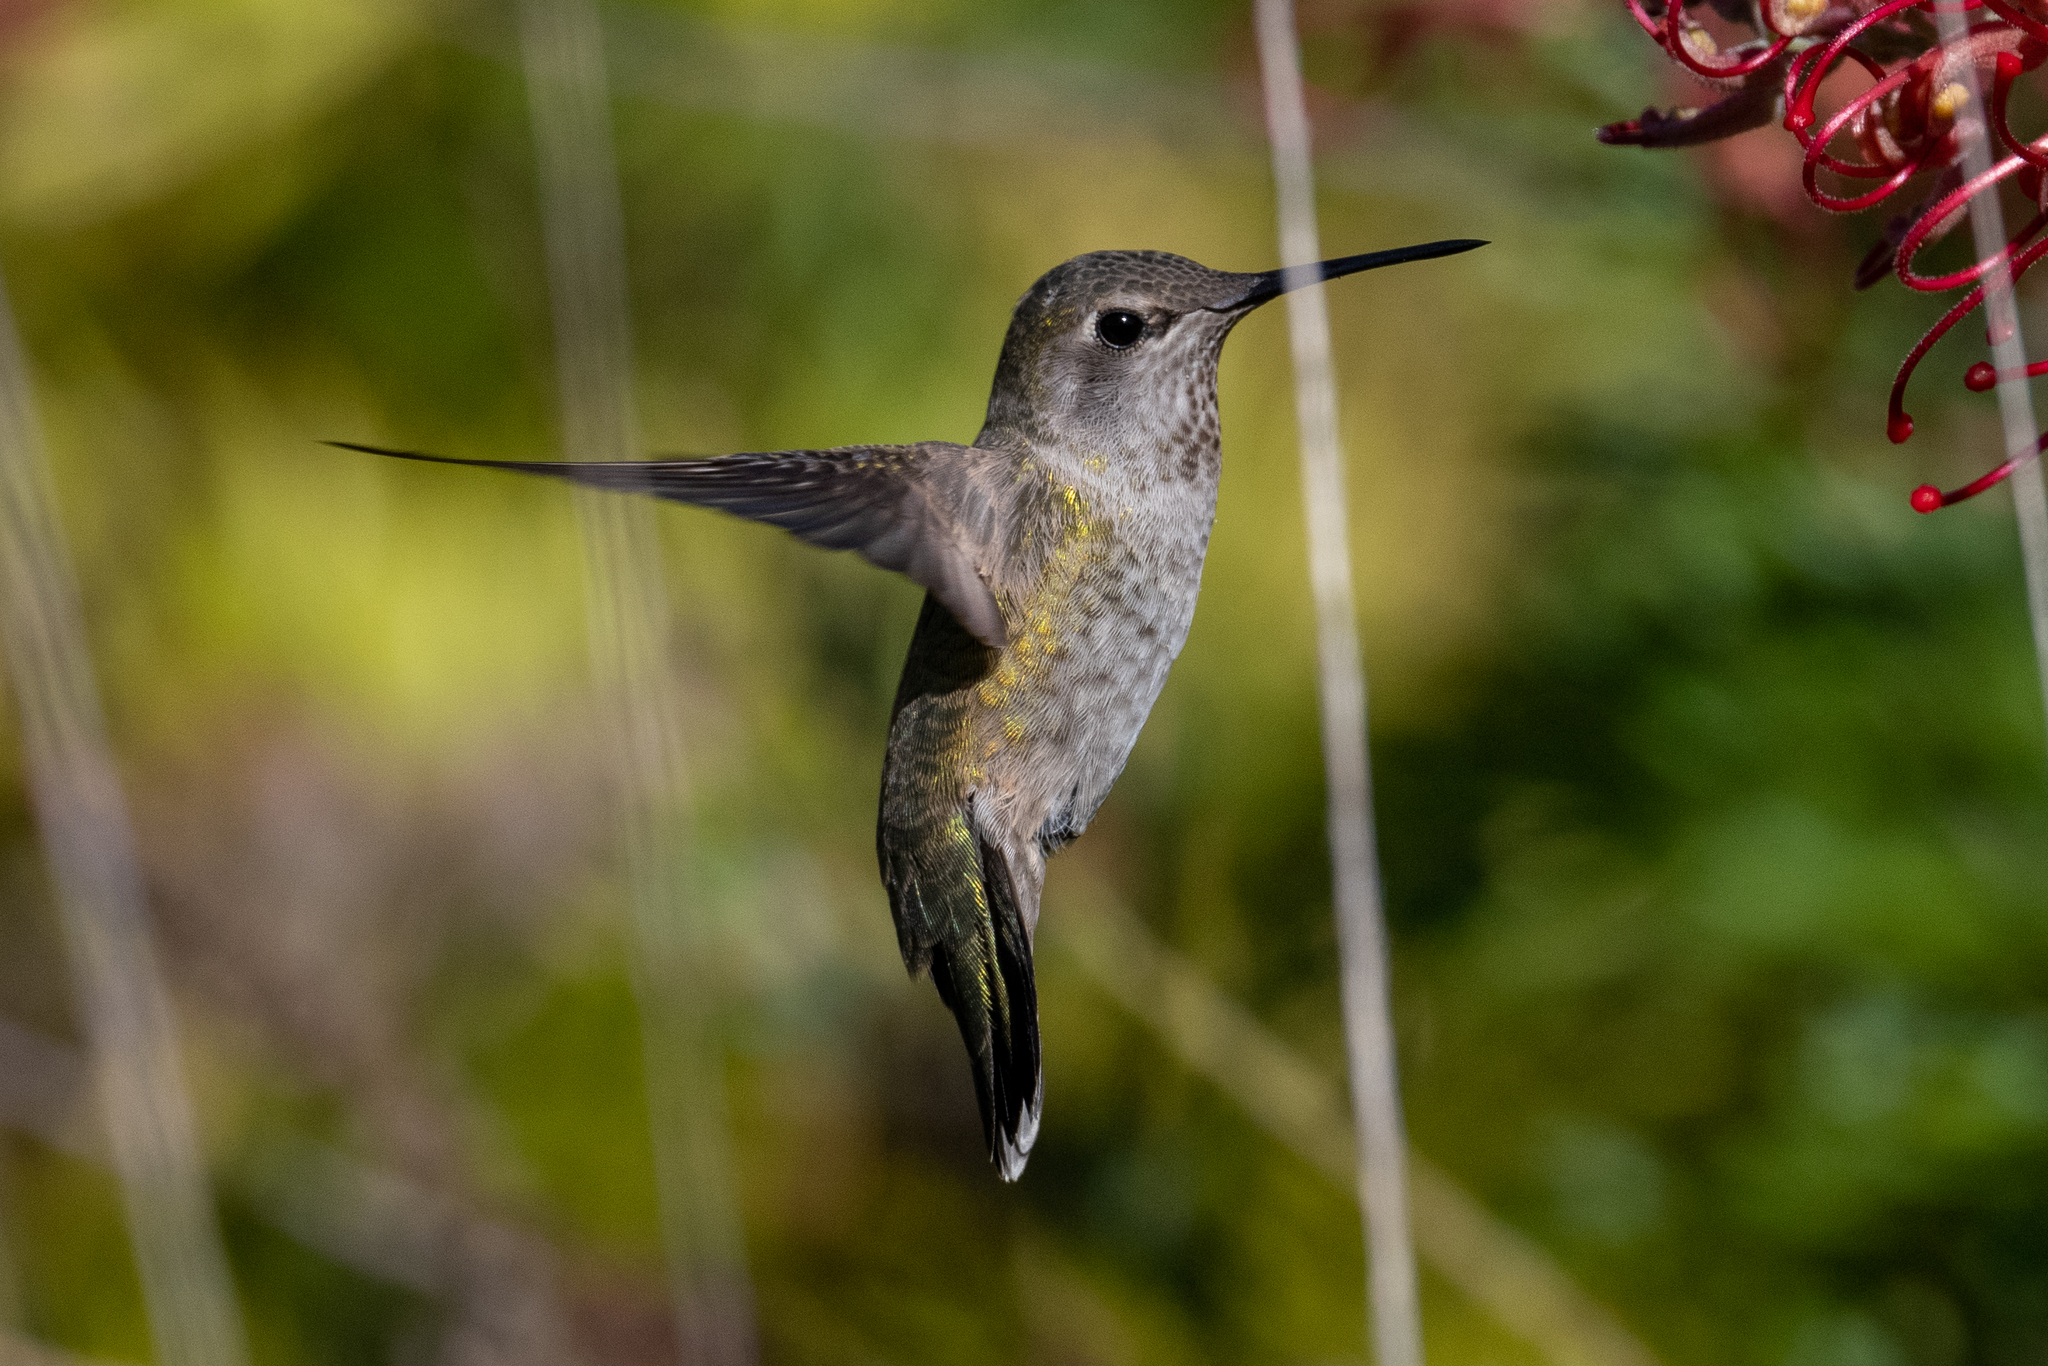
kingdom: Animalia
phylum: Chordata
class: Aves
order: Apodiformes
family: Trochilidae
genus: Calypte
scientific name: Calypte anna
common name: Anna's hummingbird
